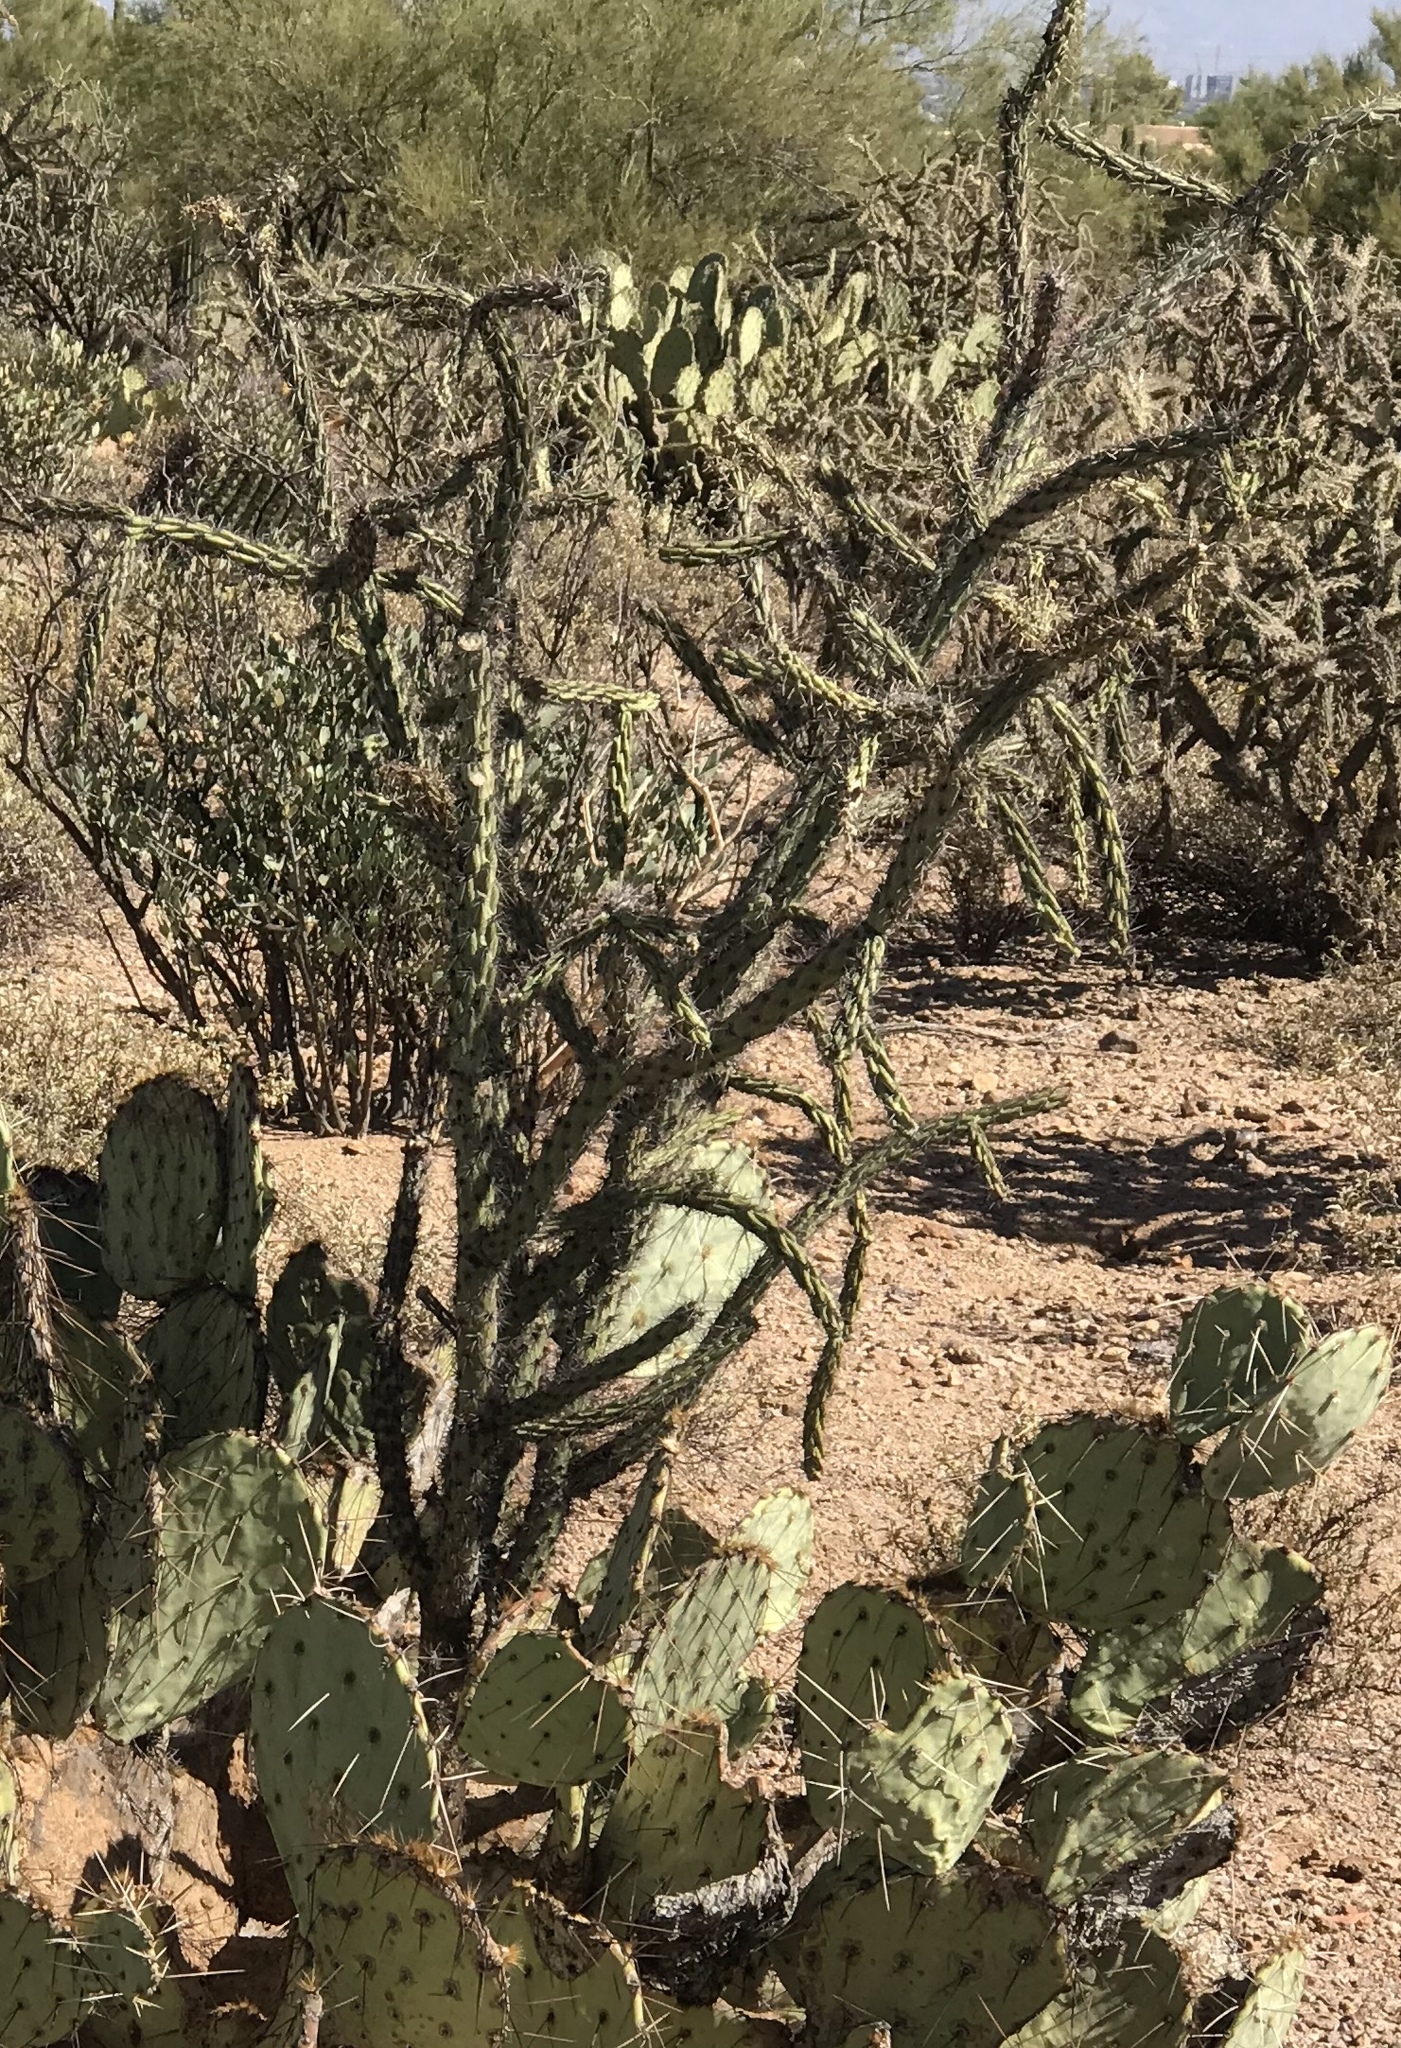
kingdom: Plantae
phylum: Tracheophyta
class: Magnoliopsida
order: Caryophyllales
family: Cactaceae
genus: Cylindropuntia
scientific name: Cylindropuntia thurberi
